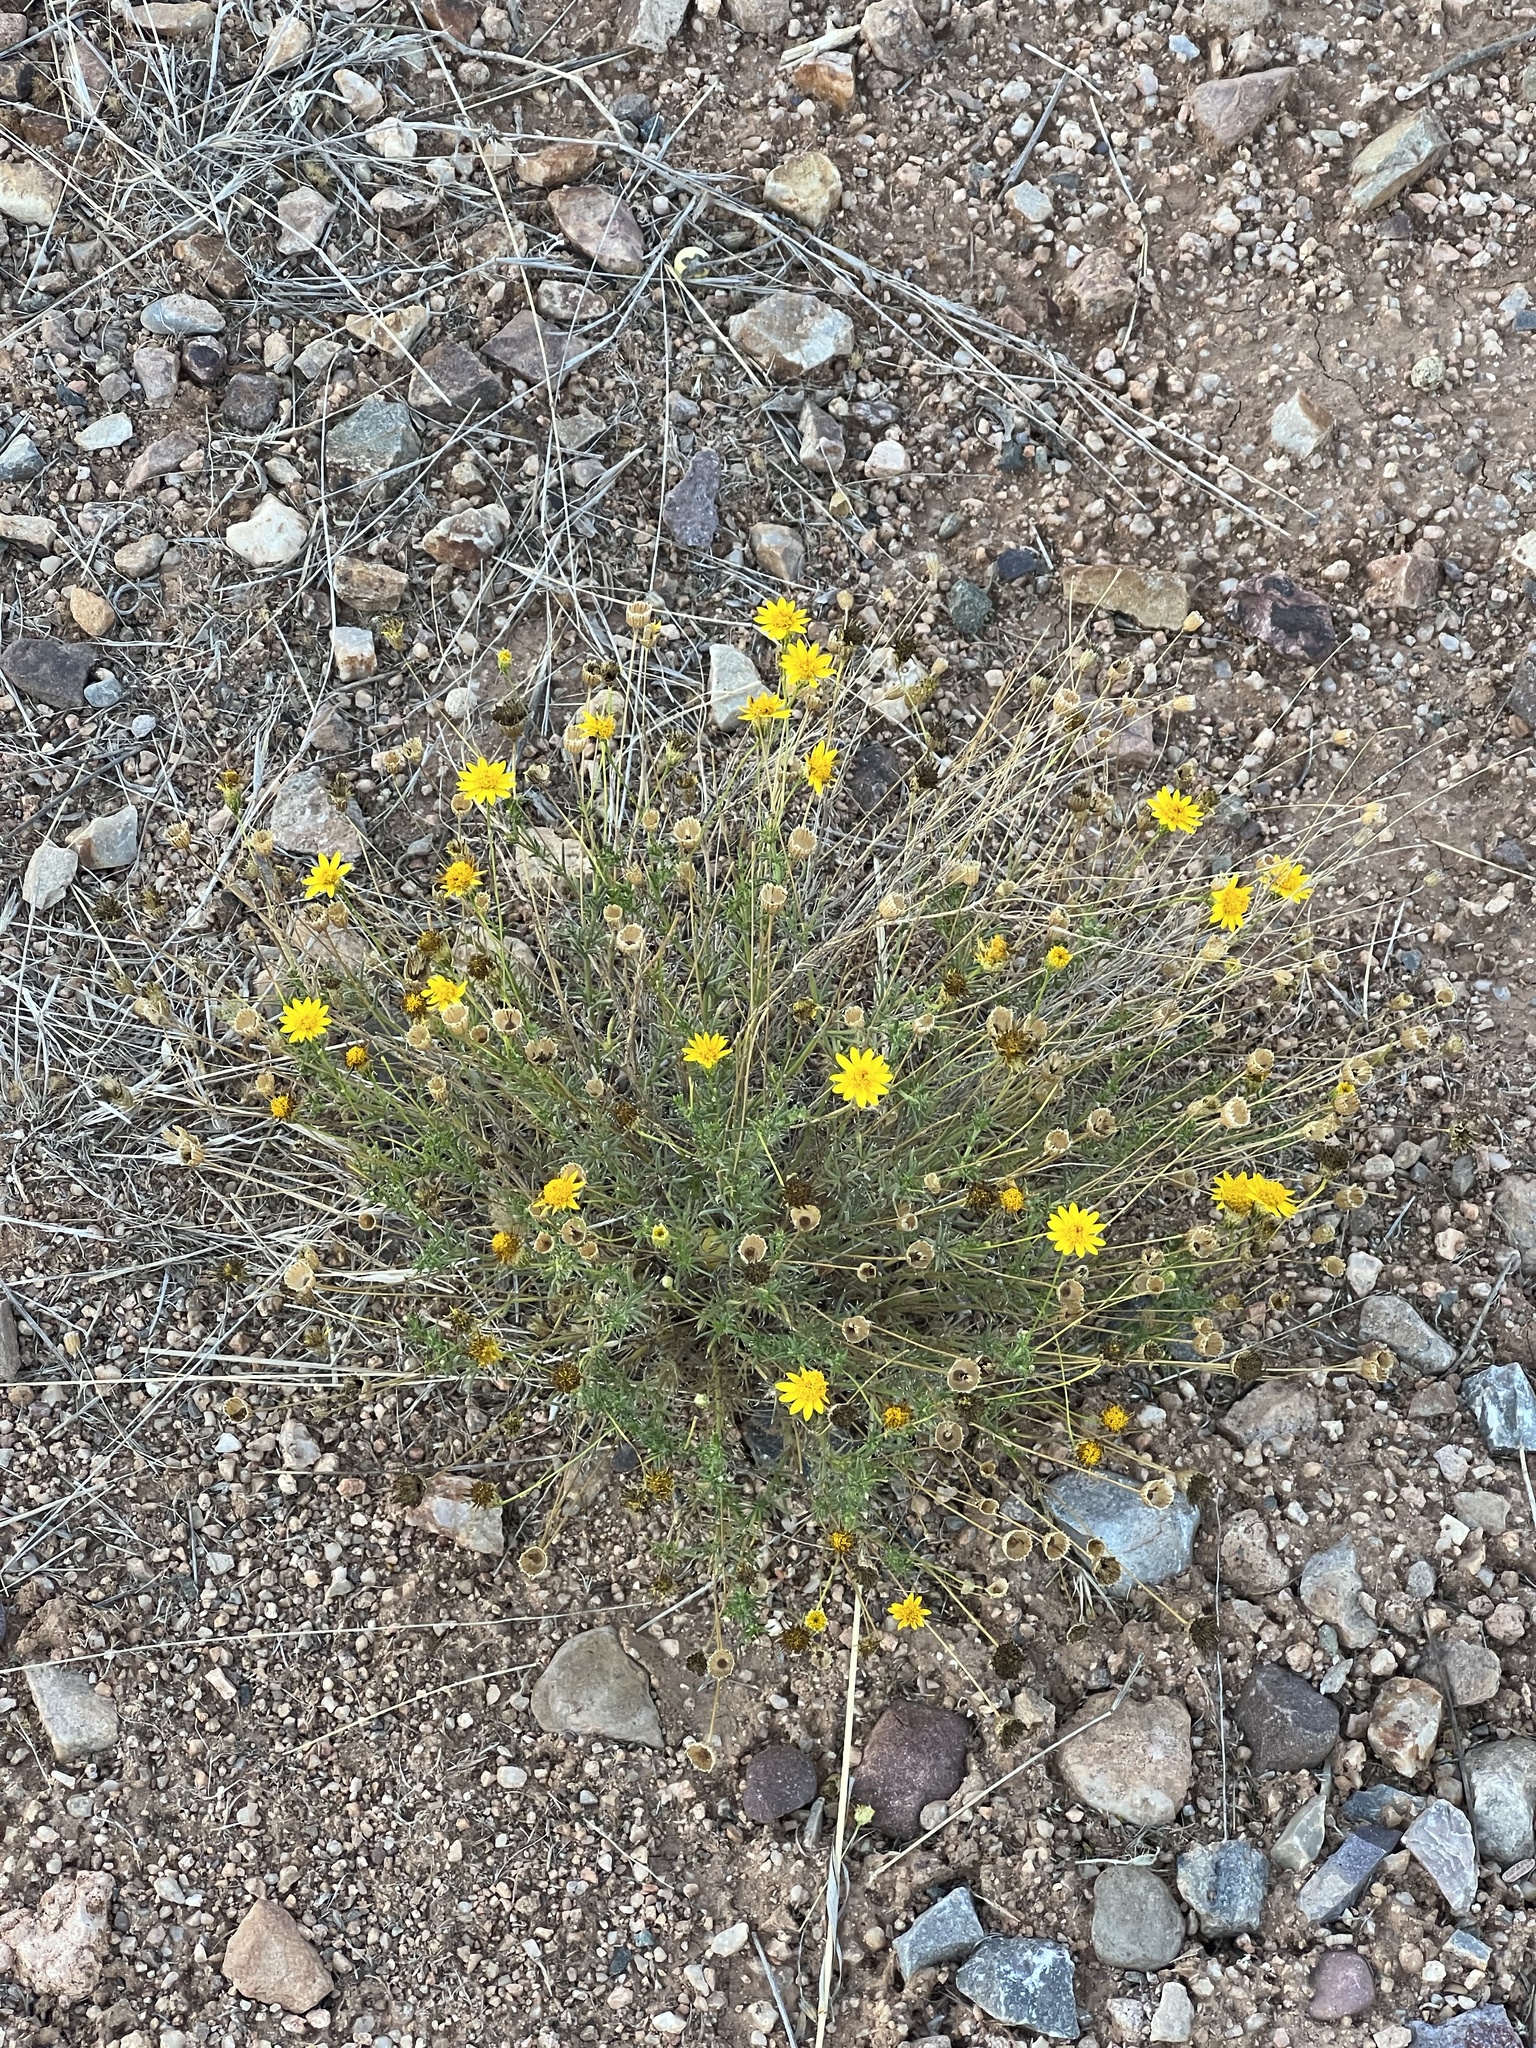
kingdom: Plantae
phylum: Tracheophyta
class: Magnoliopsida
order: Asterales
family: Asteraceae
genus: Thymophylla
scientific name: Thymophylla pentachaeta
